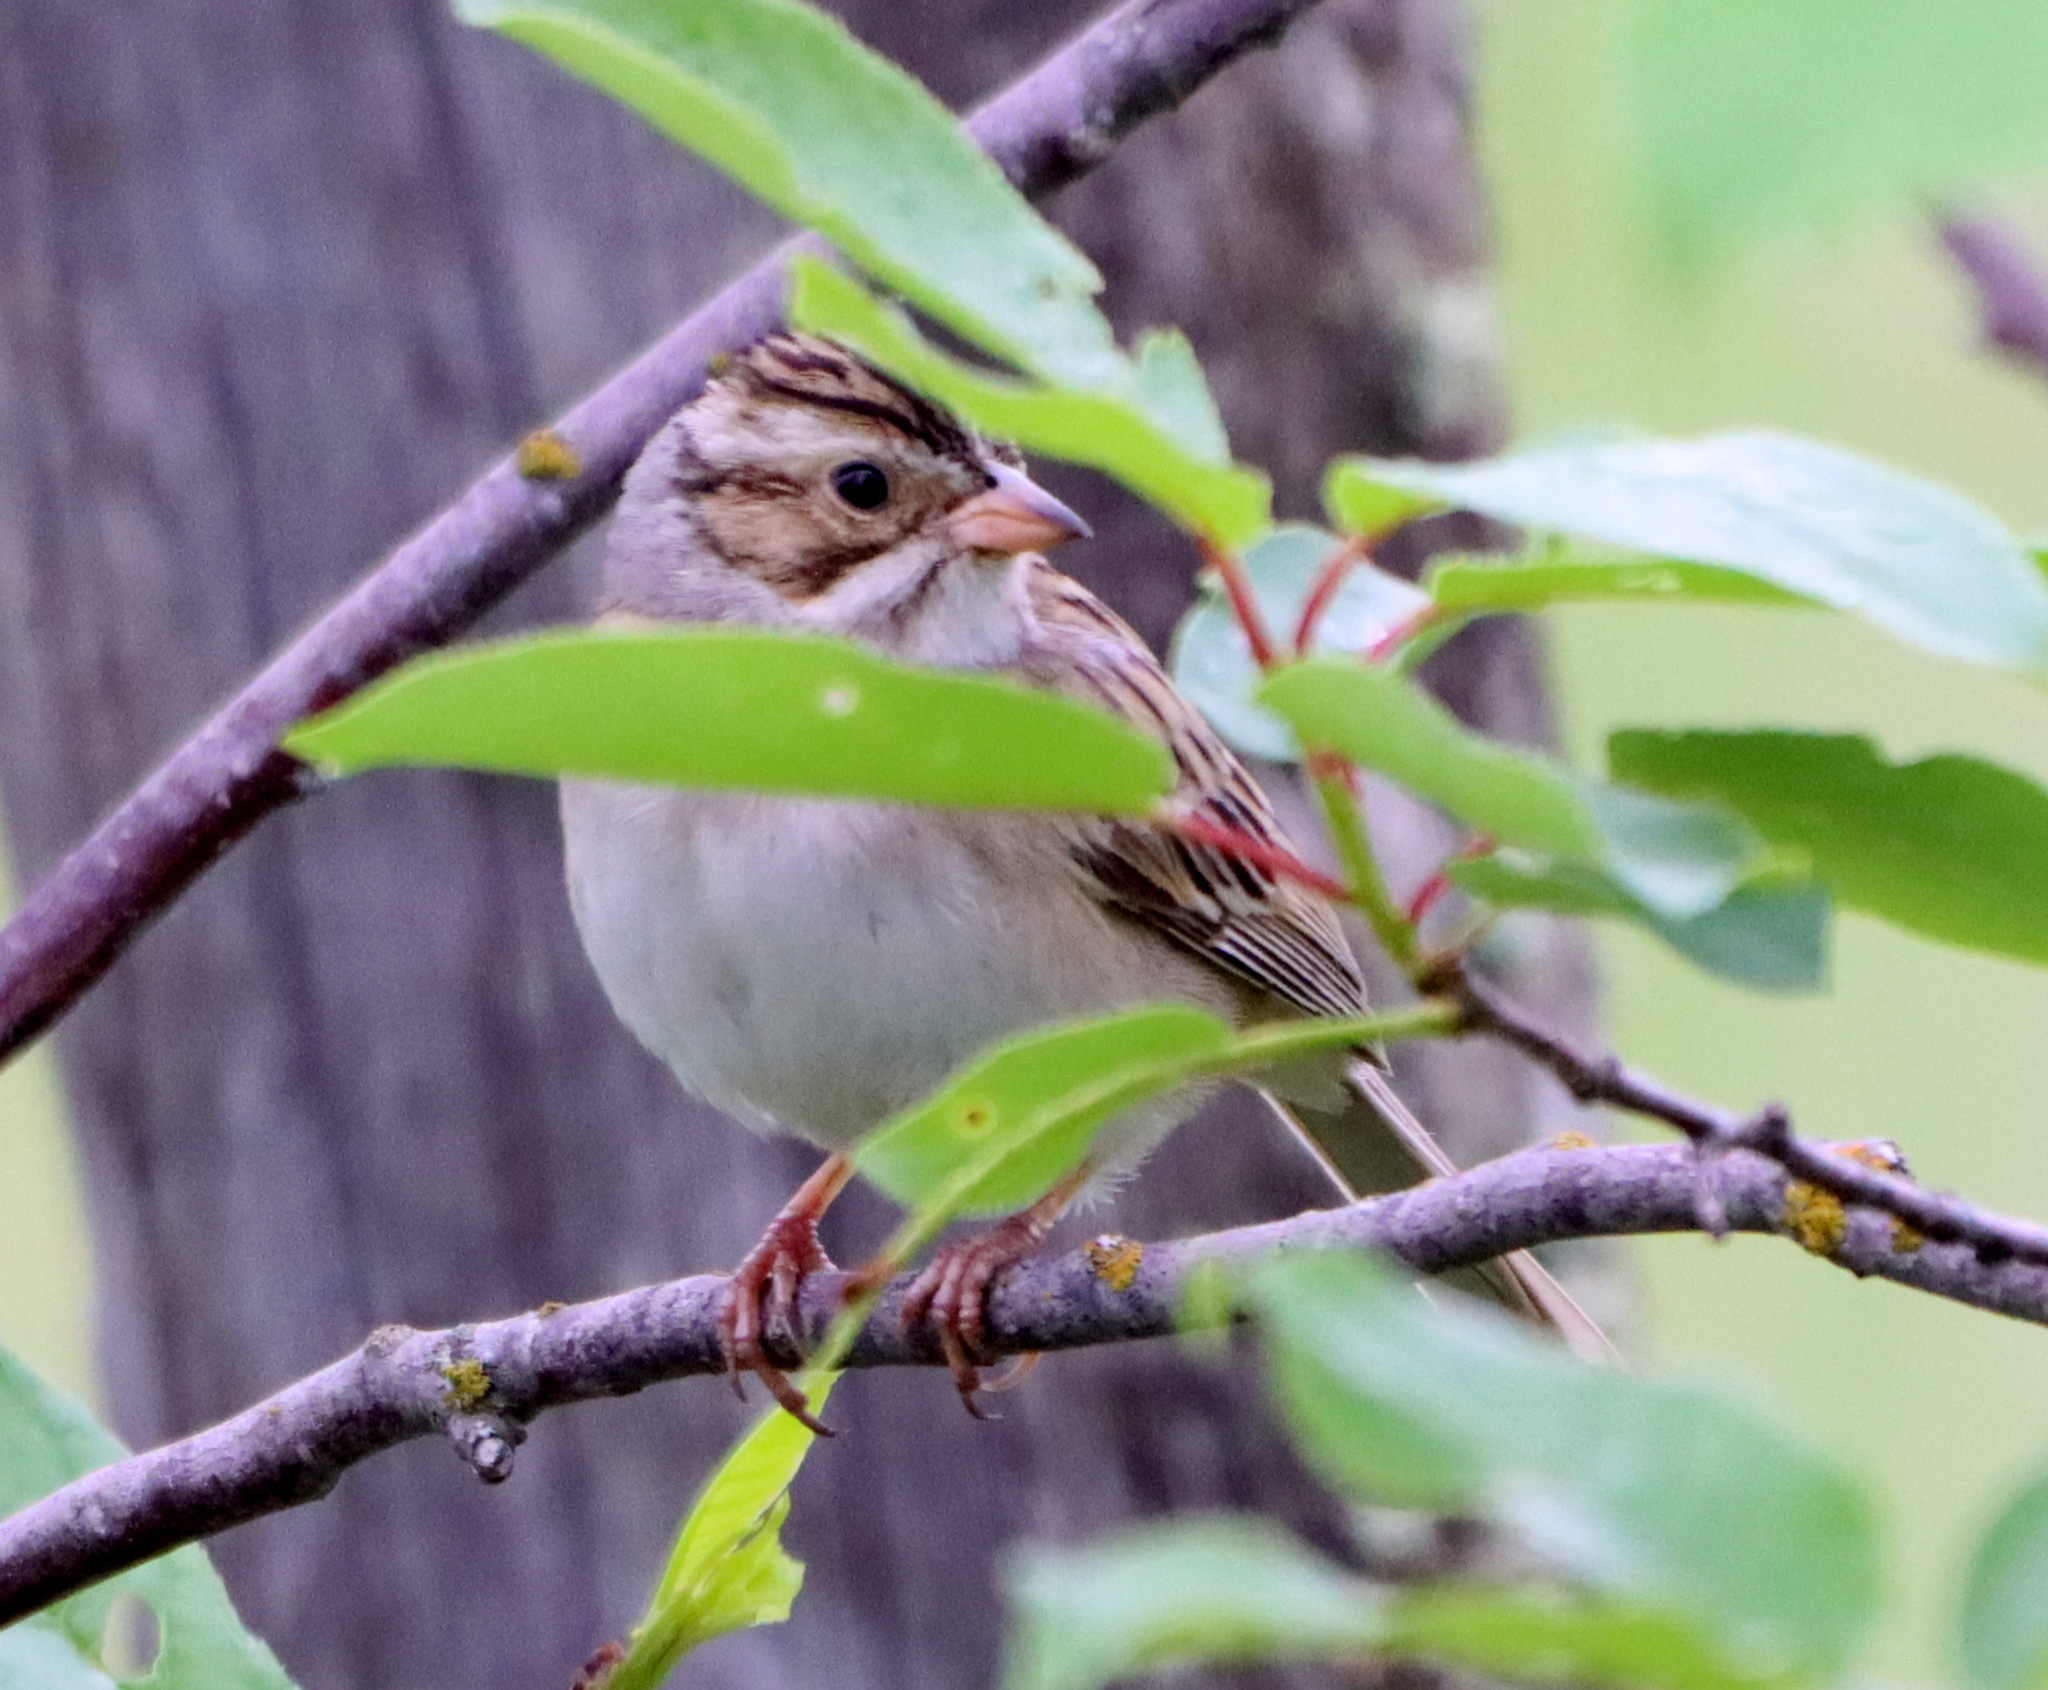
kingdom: Animalia
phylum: Chordata
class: Aves
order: Passeriformes
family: Passerellidae
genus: Spizella
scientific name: Spizella pallida
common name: Clay-colored sparrow
